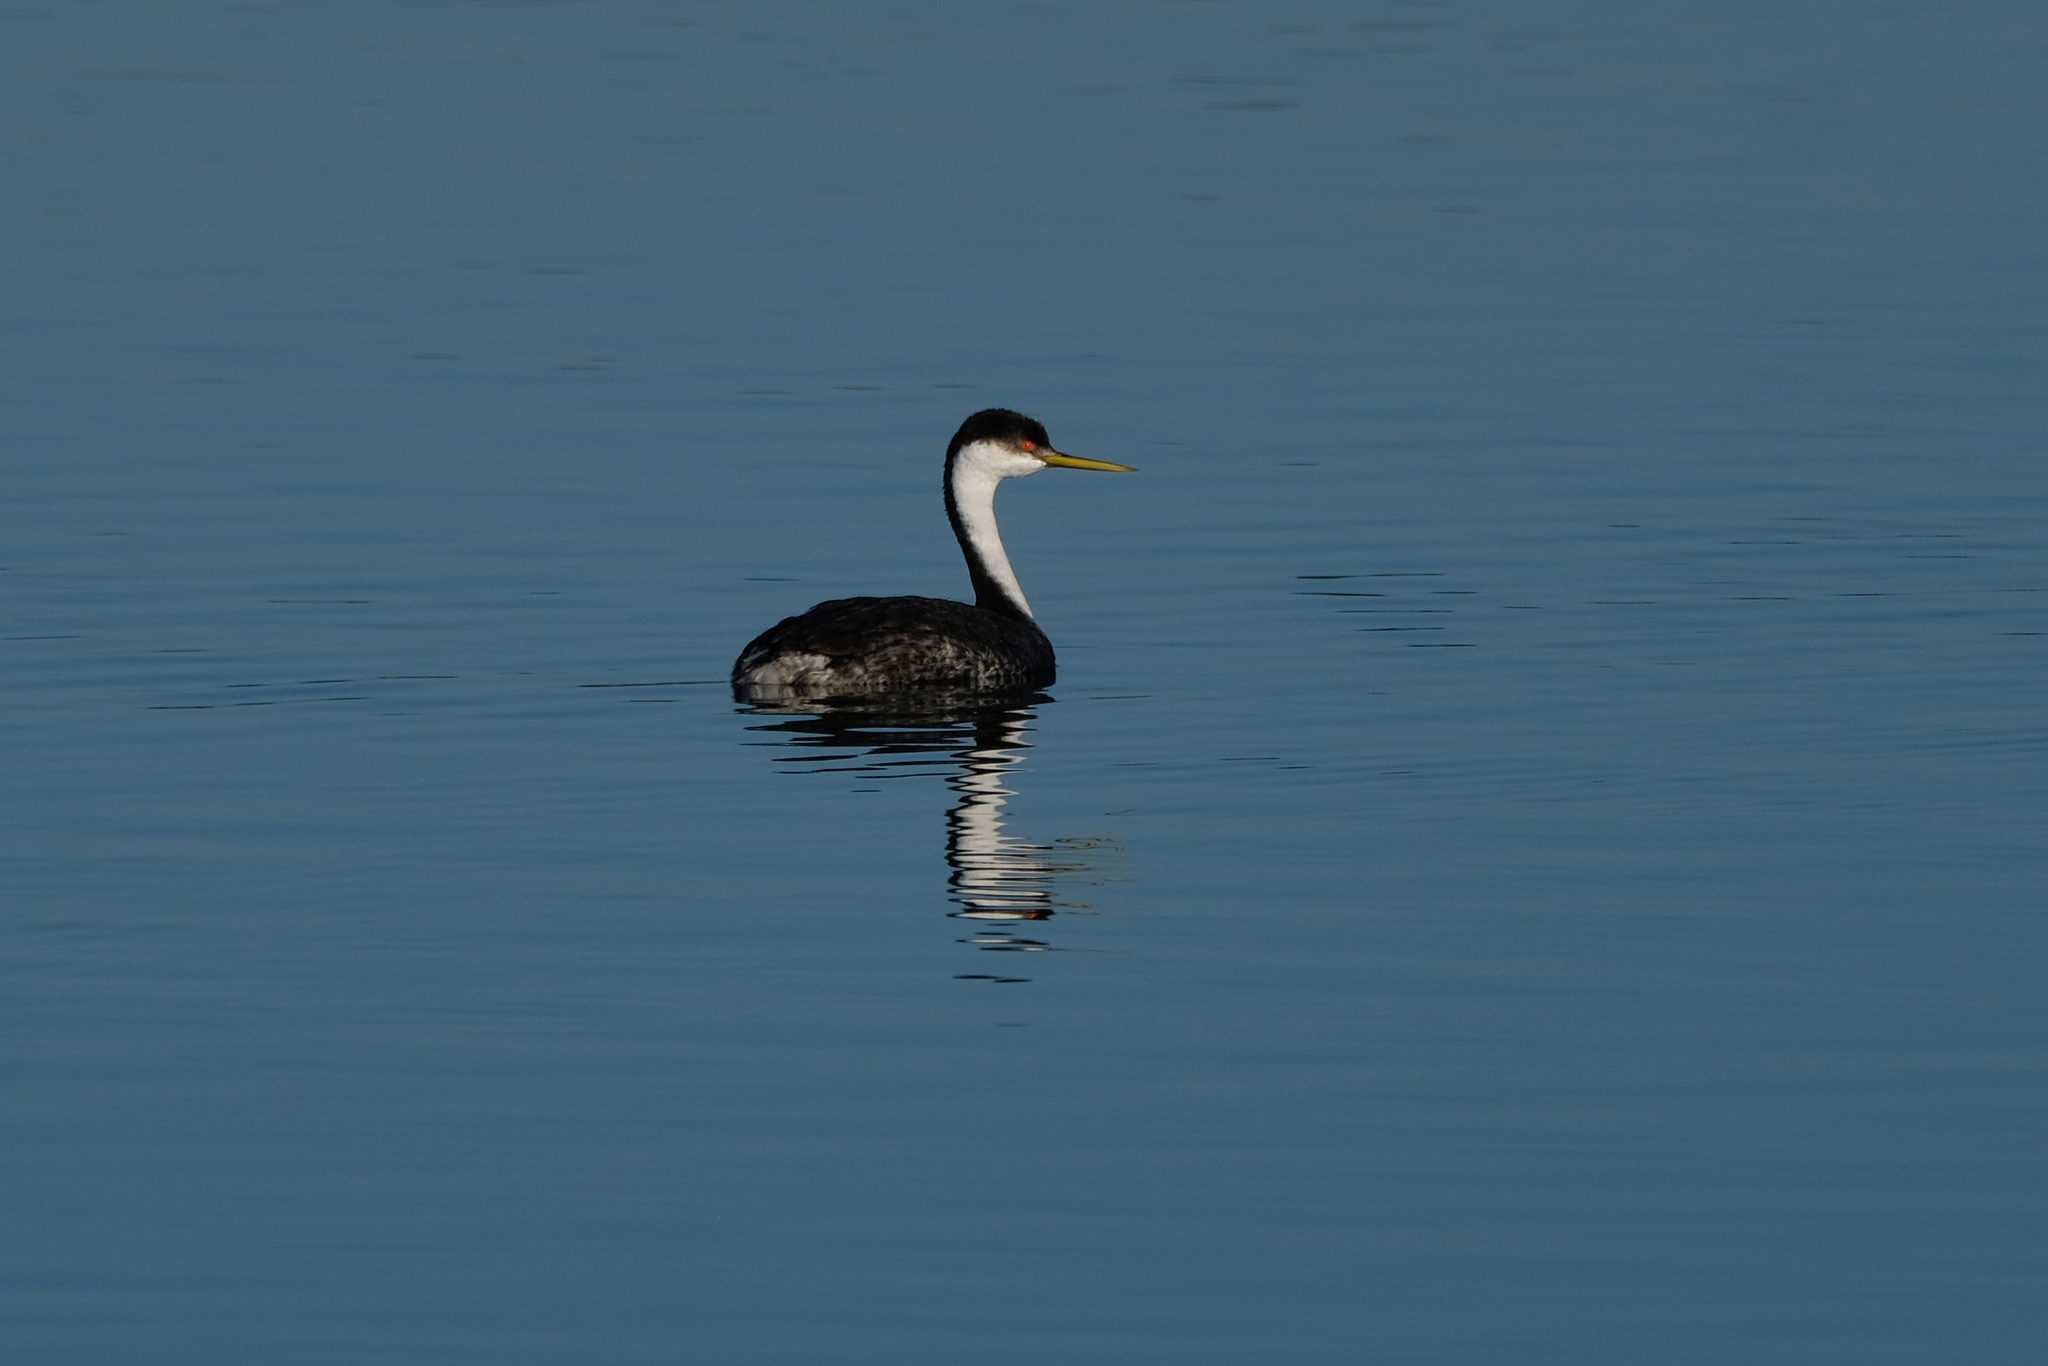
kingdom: Animalia
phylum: Chordata
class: Aves
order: Podicipediformes
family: Podicipedidae
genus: Aechmophorus
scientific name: Aechmophorus occidentalis
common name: Western grebe
